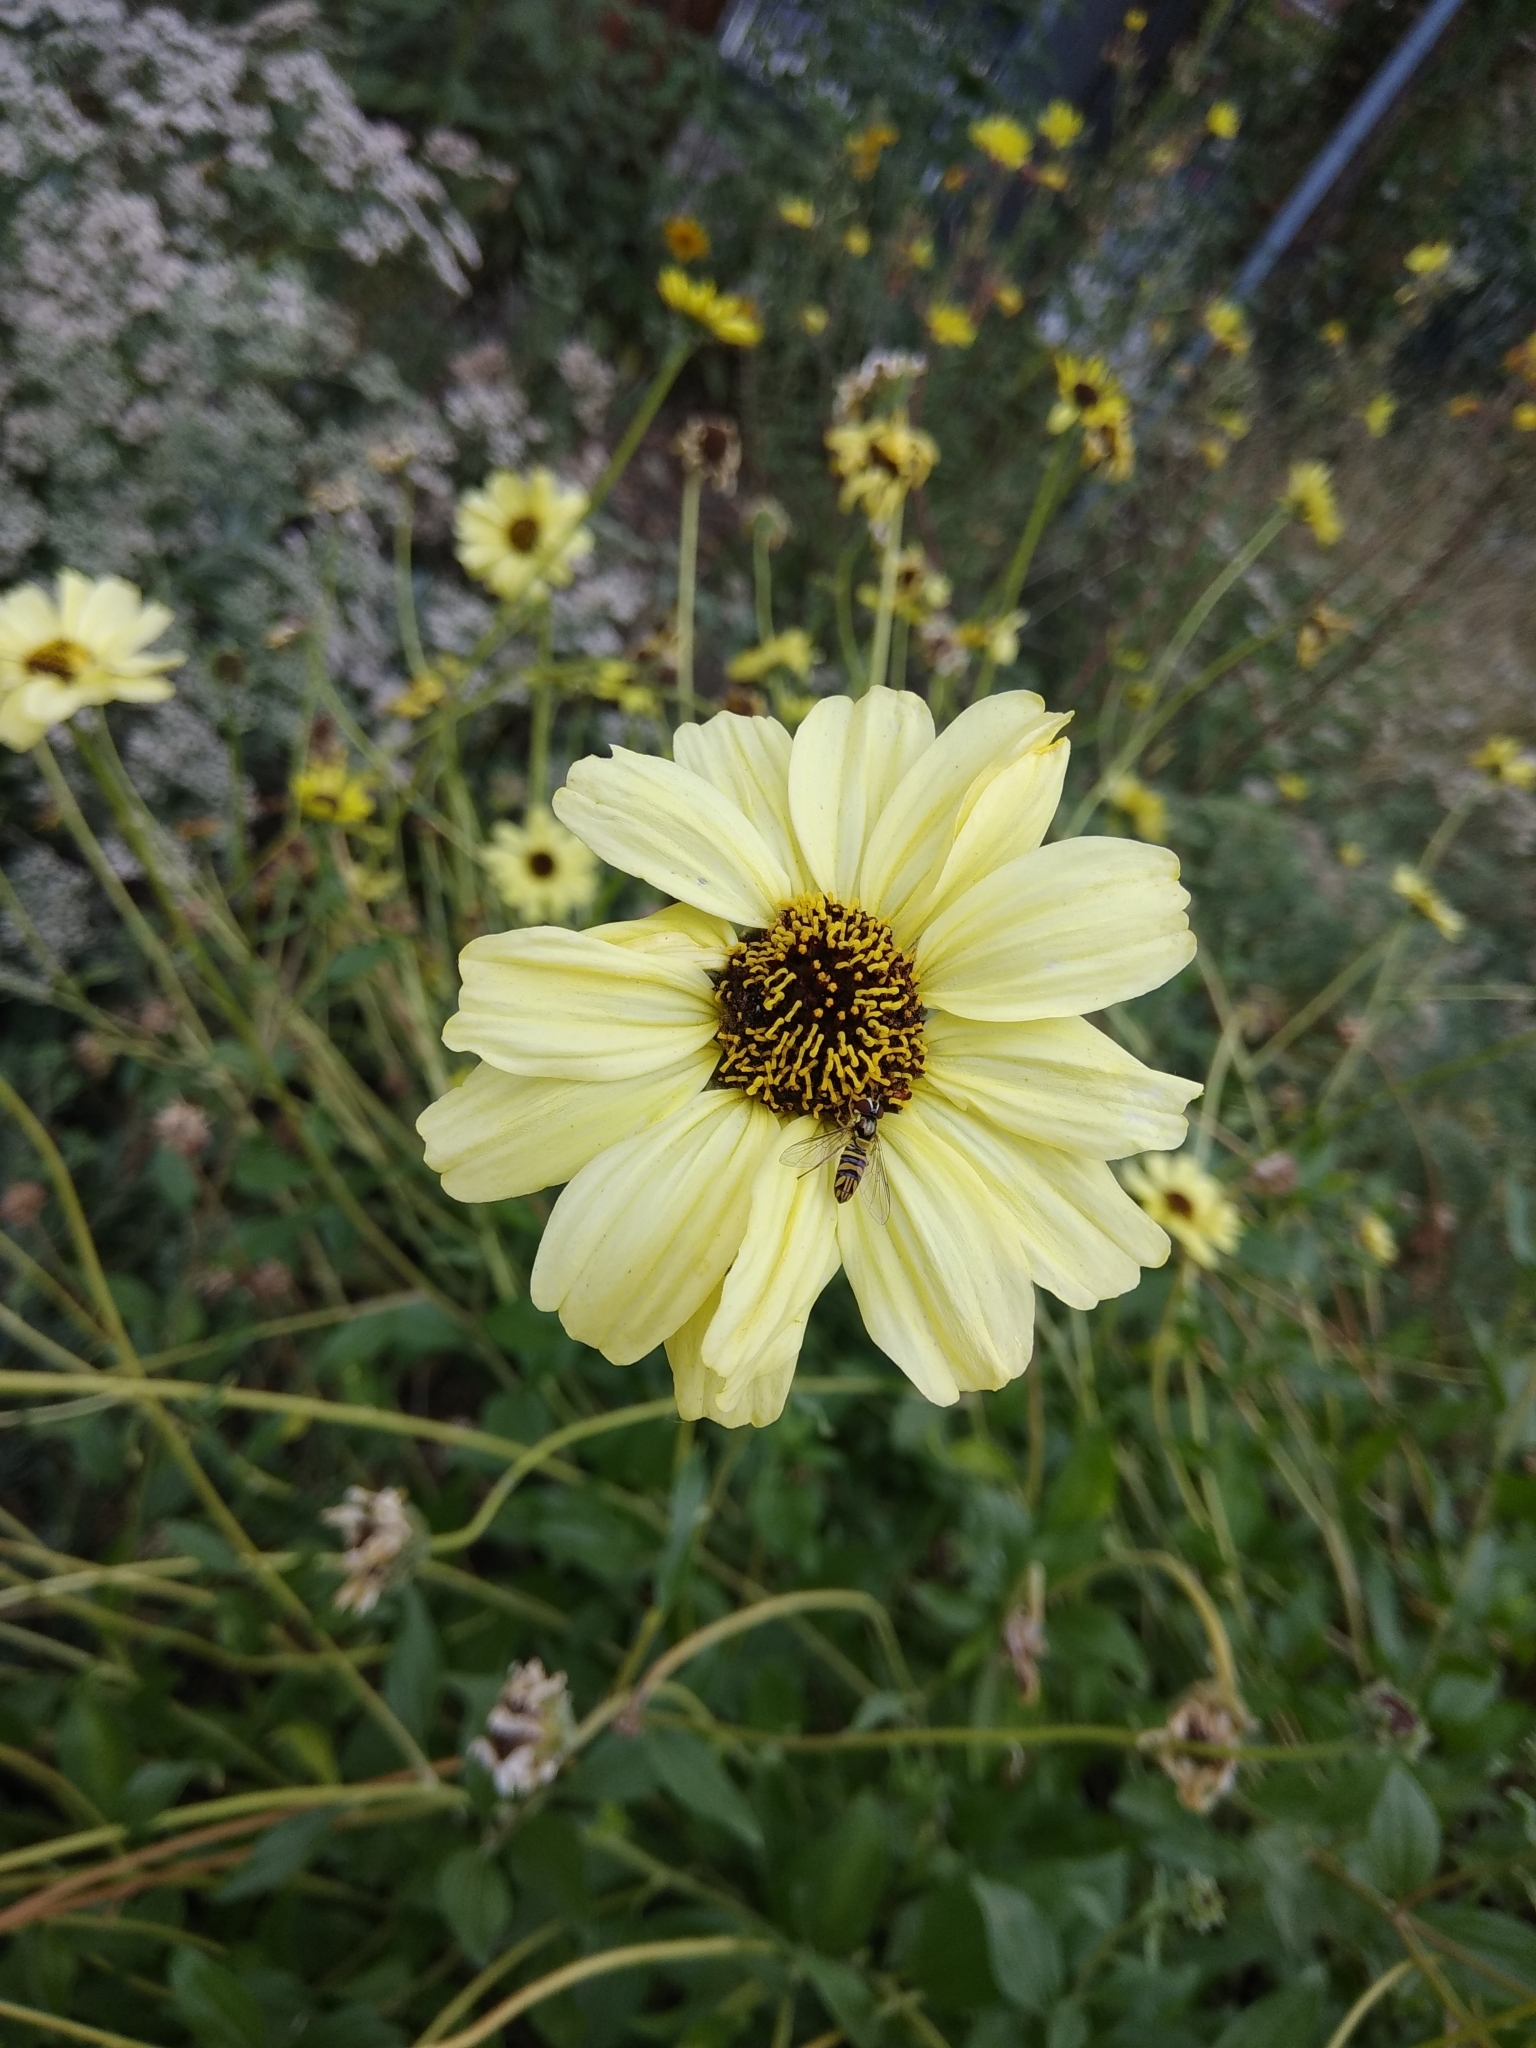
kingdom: Animalia
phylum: Arthropoda
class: Insecta
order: Diptera
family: Syrphidae
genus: Allograpta
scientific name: Allograpta obliqua
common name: Common oblique syrphid
